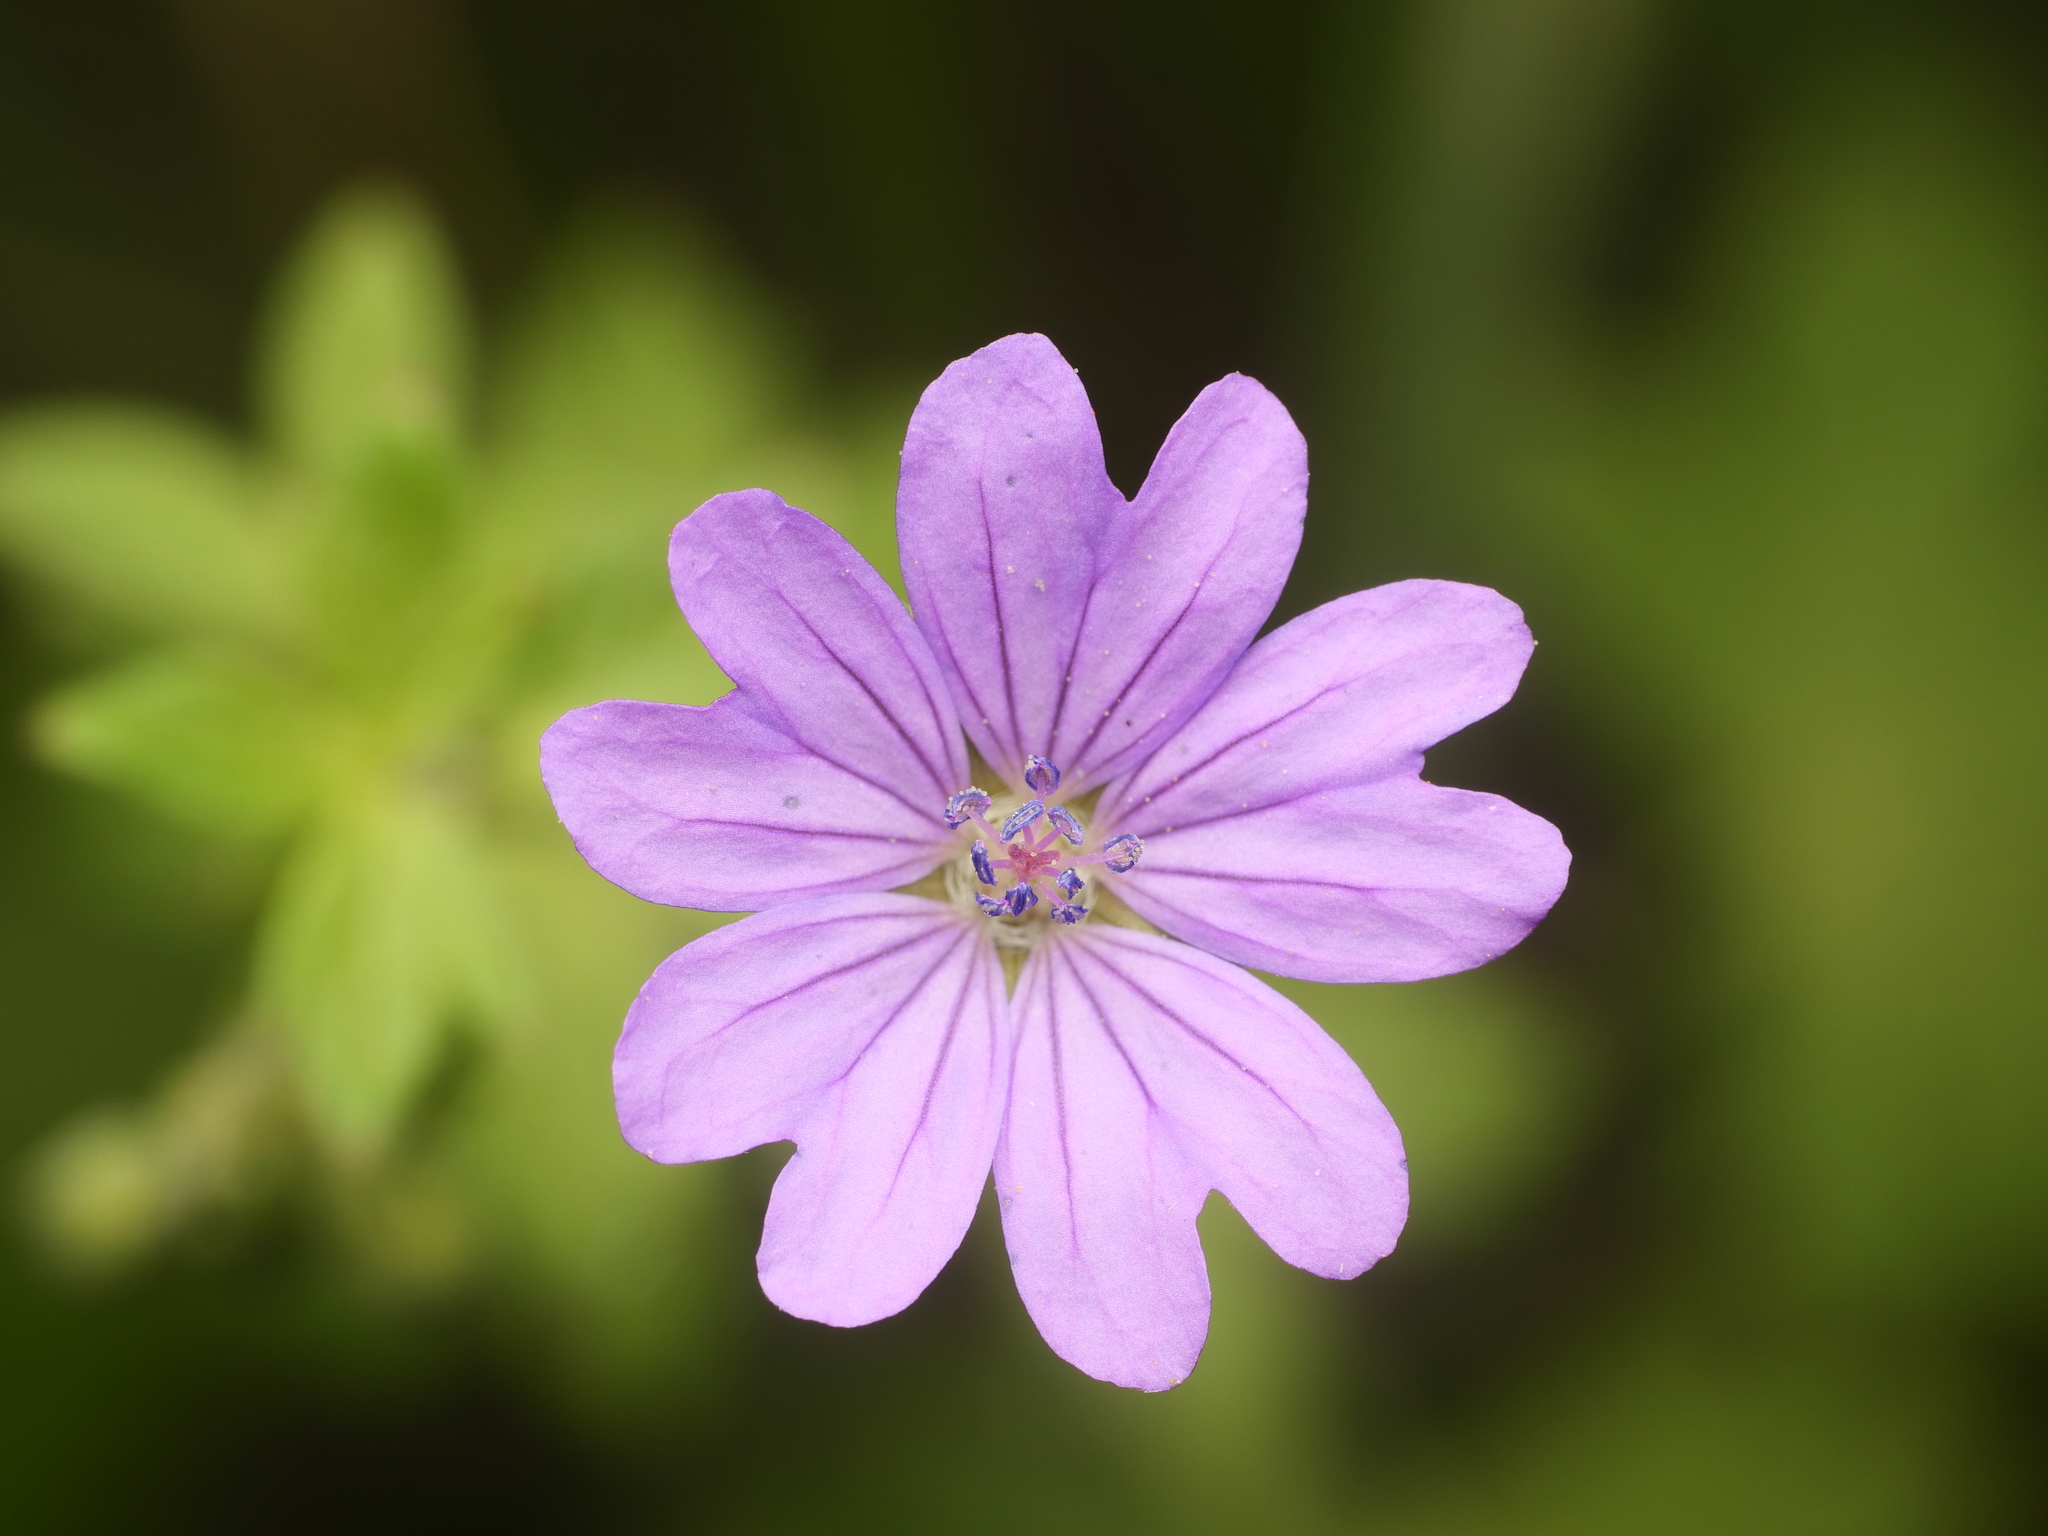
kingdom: Plantae
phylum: Tracheophyta
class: Magnoliopsida
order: Geraniales
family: Geraniaceae
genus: Geranium
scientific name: Geranium pyrenaicum
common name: Hedgerow crane's-bill
